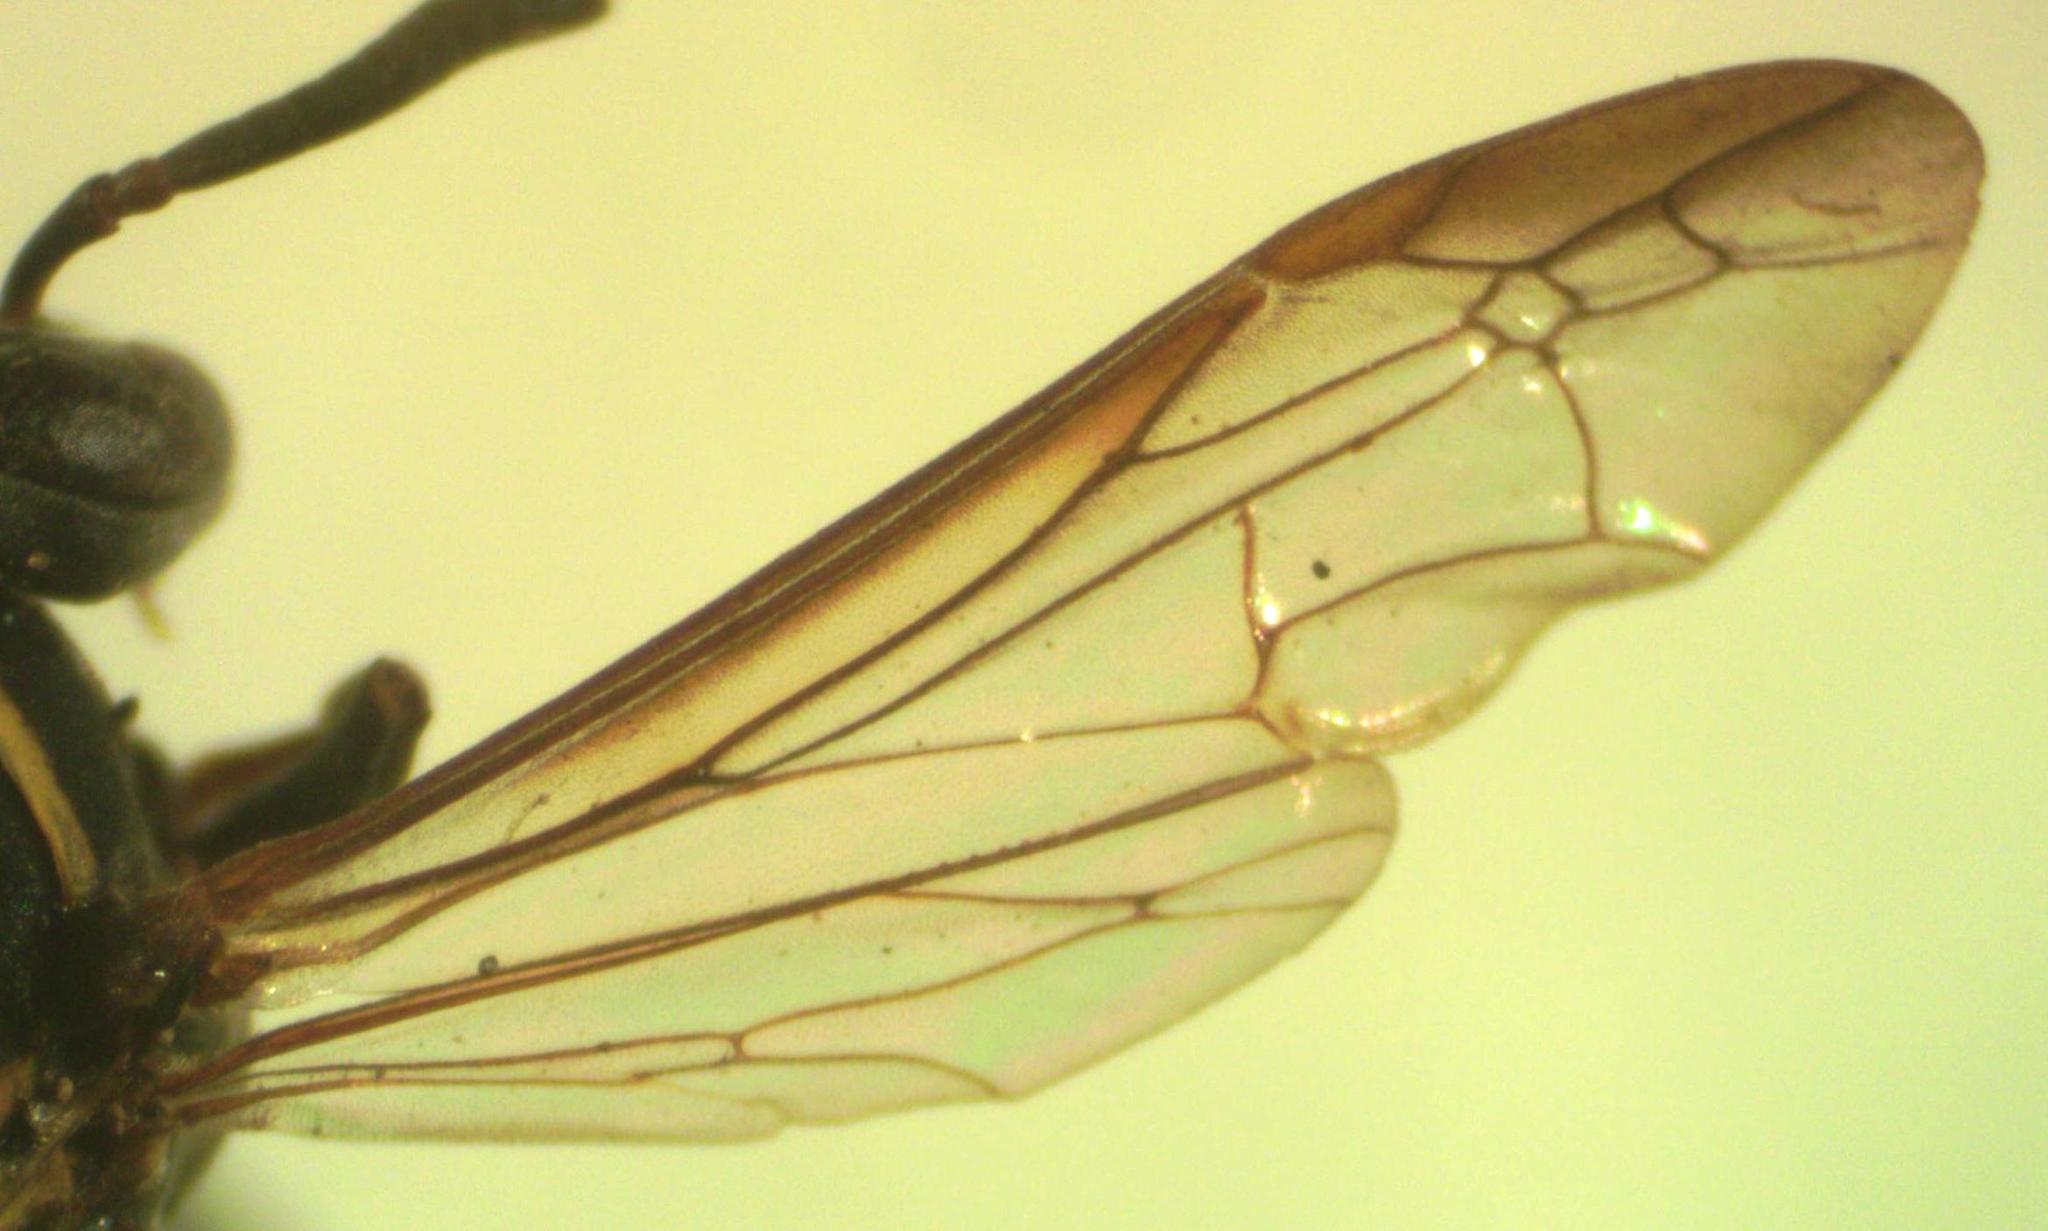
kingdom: Animalia
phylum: Arthropoda
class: Insecta
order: Hymenoptera
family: Eumenidae
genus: Polybia
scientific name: Polybia occidentalis
